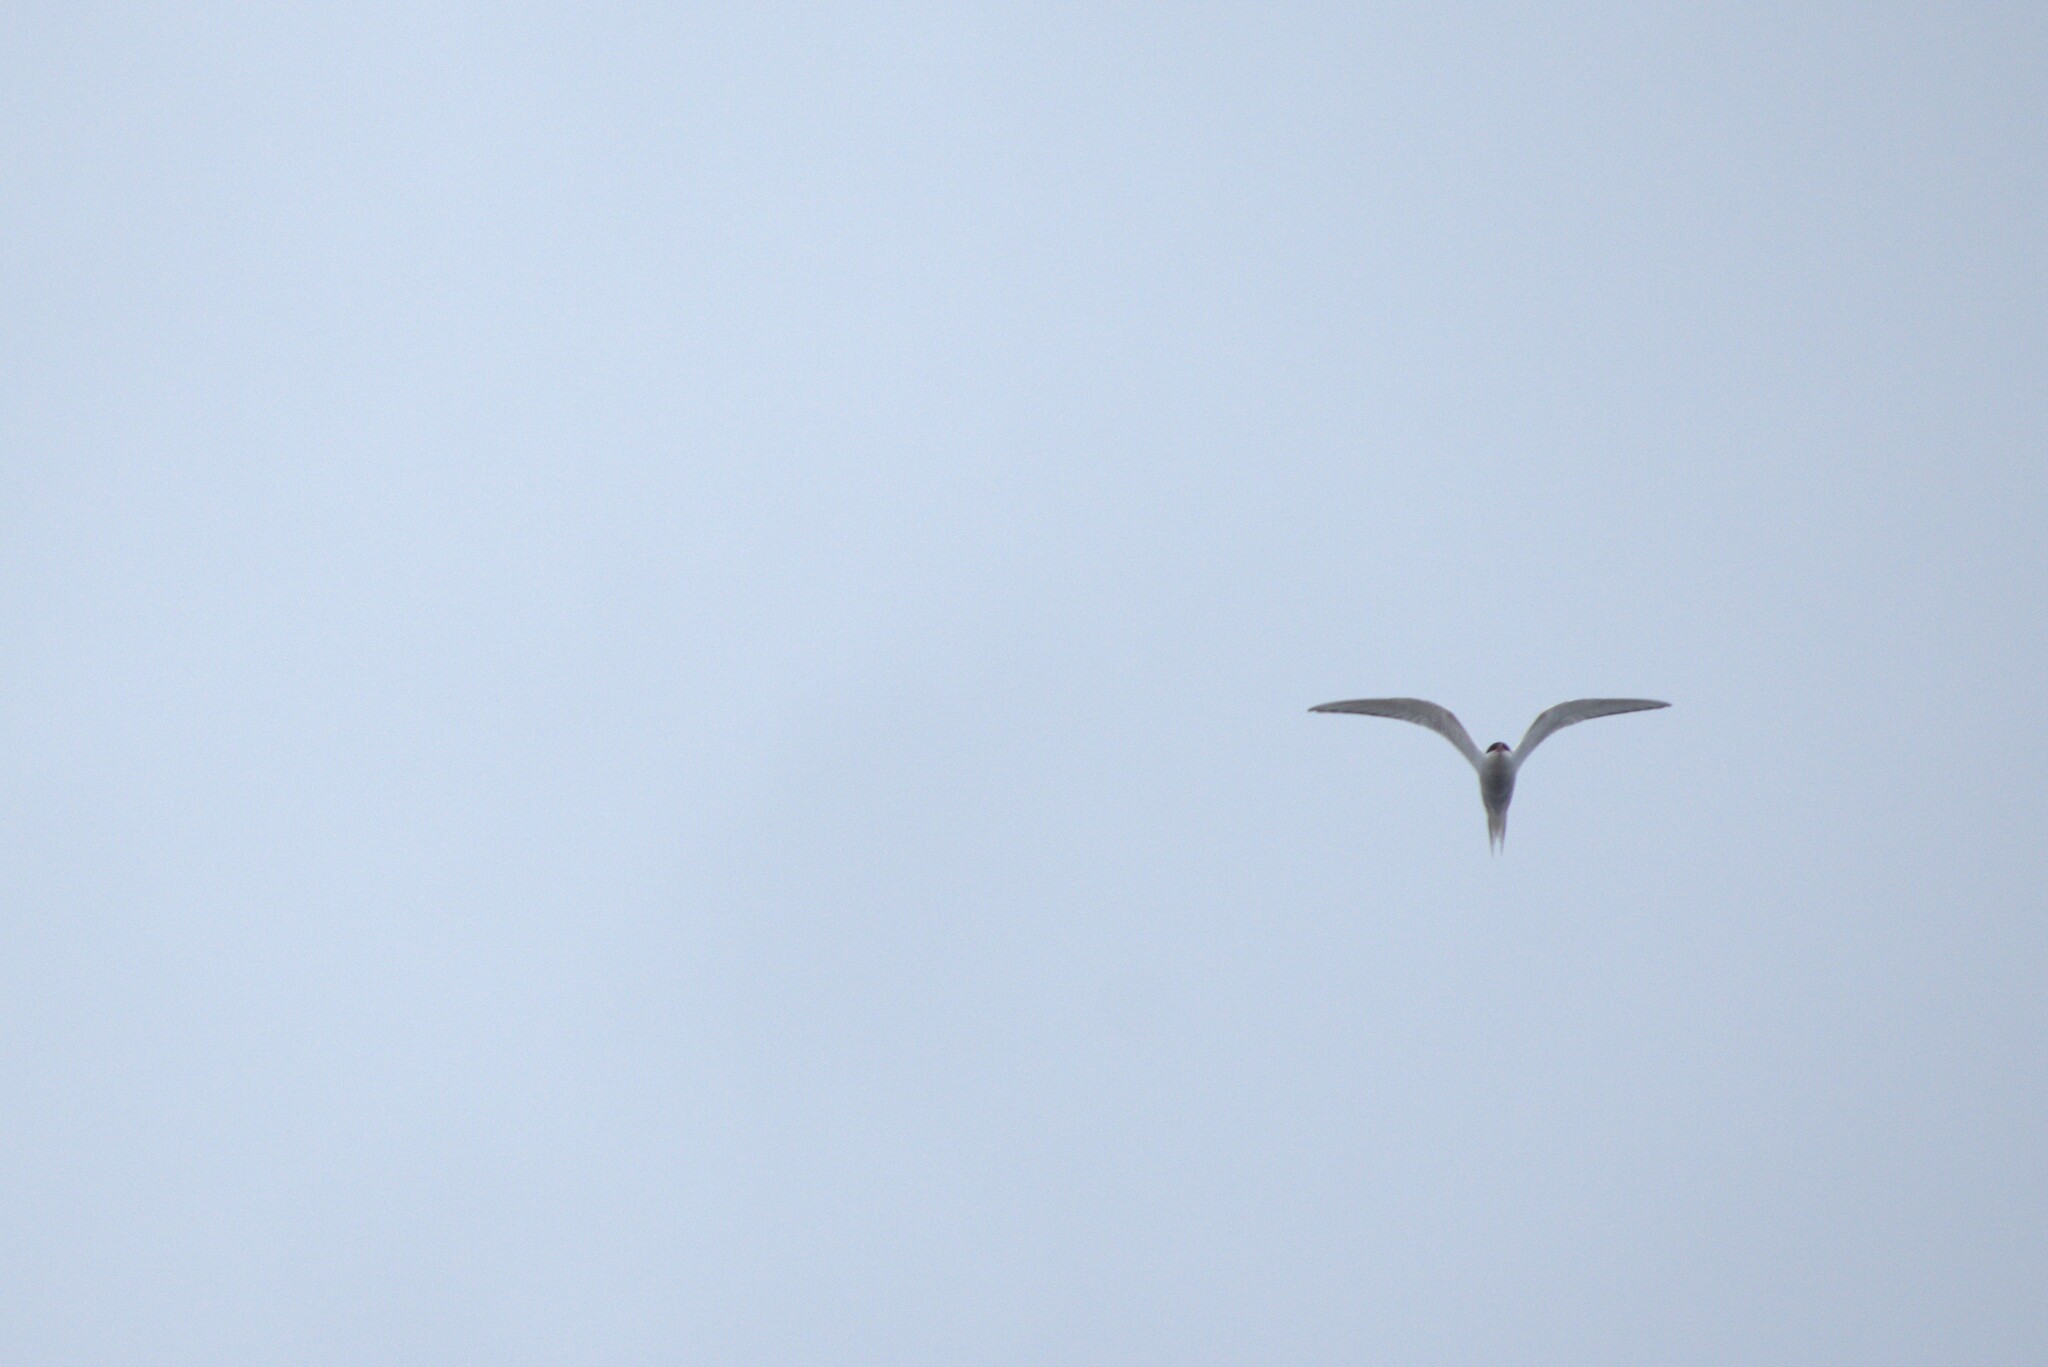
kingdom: Animalia
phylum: Chordata
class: Aves
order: Charadriiformes
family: Laridae
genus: Sterna
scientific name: Sterna paradisaea
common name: Arctic tern
